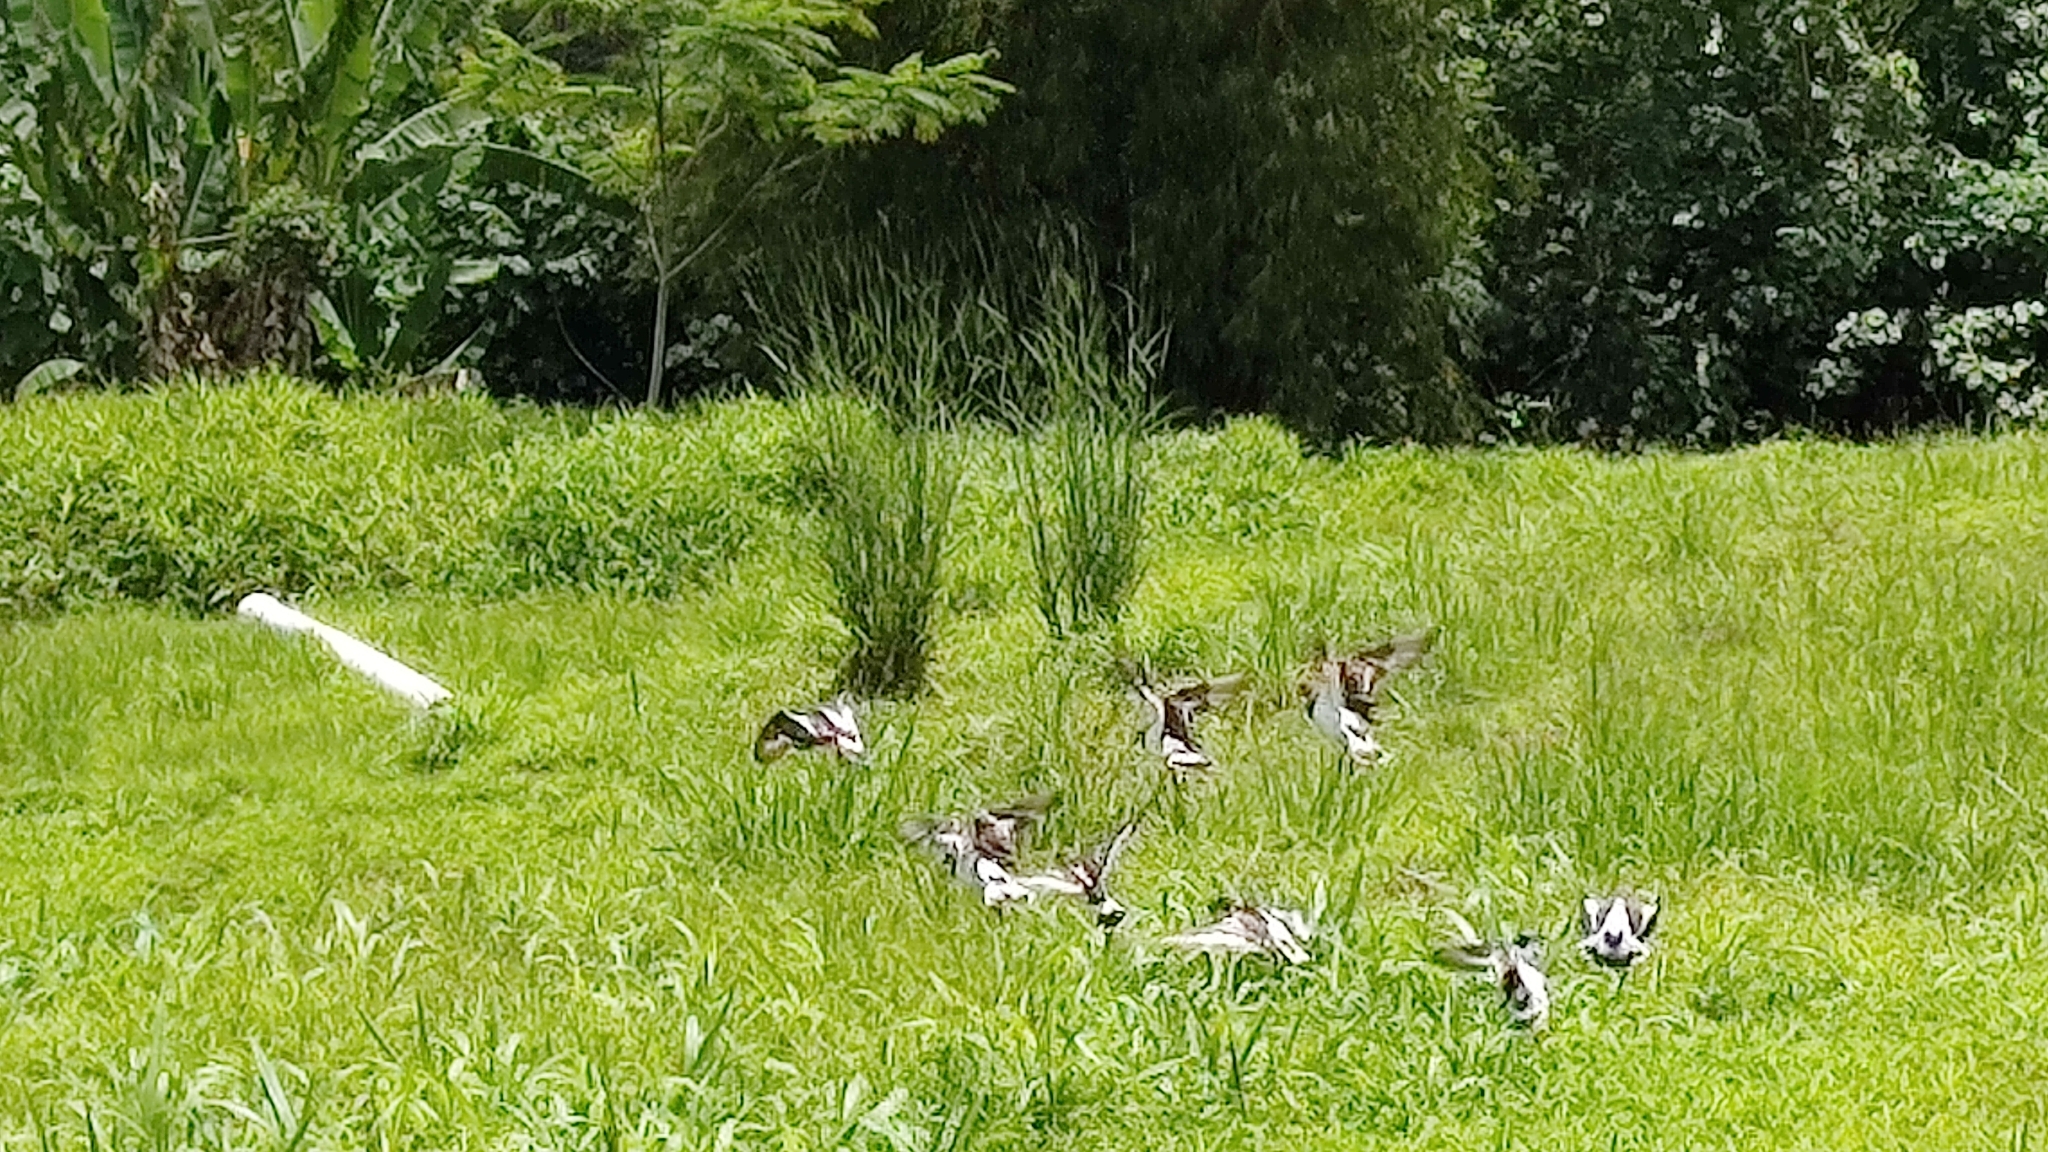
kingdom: Animalia
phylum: Chordata
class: Aves
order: Charadriiformes
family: Scolopacidae
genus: Arenaria
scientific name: Arenaria interpres
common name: Ruddy turnstone
